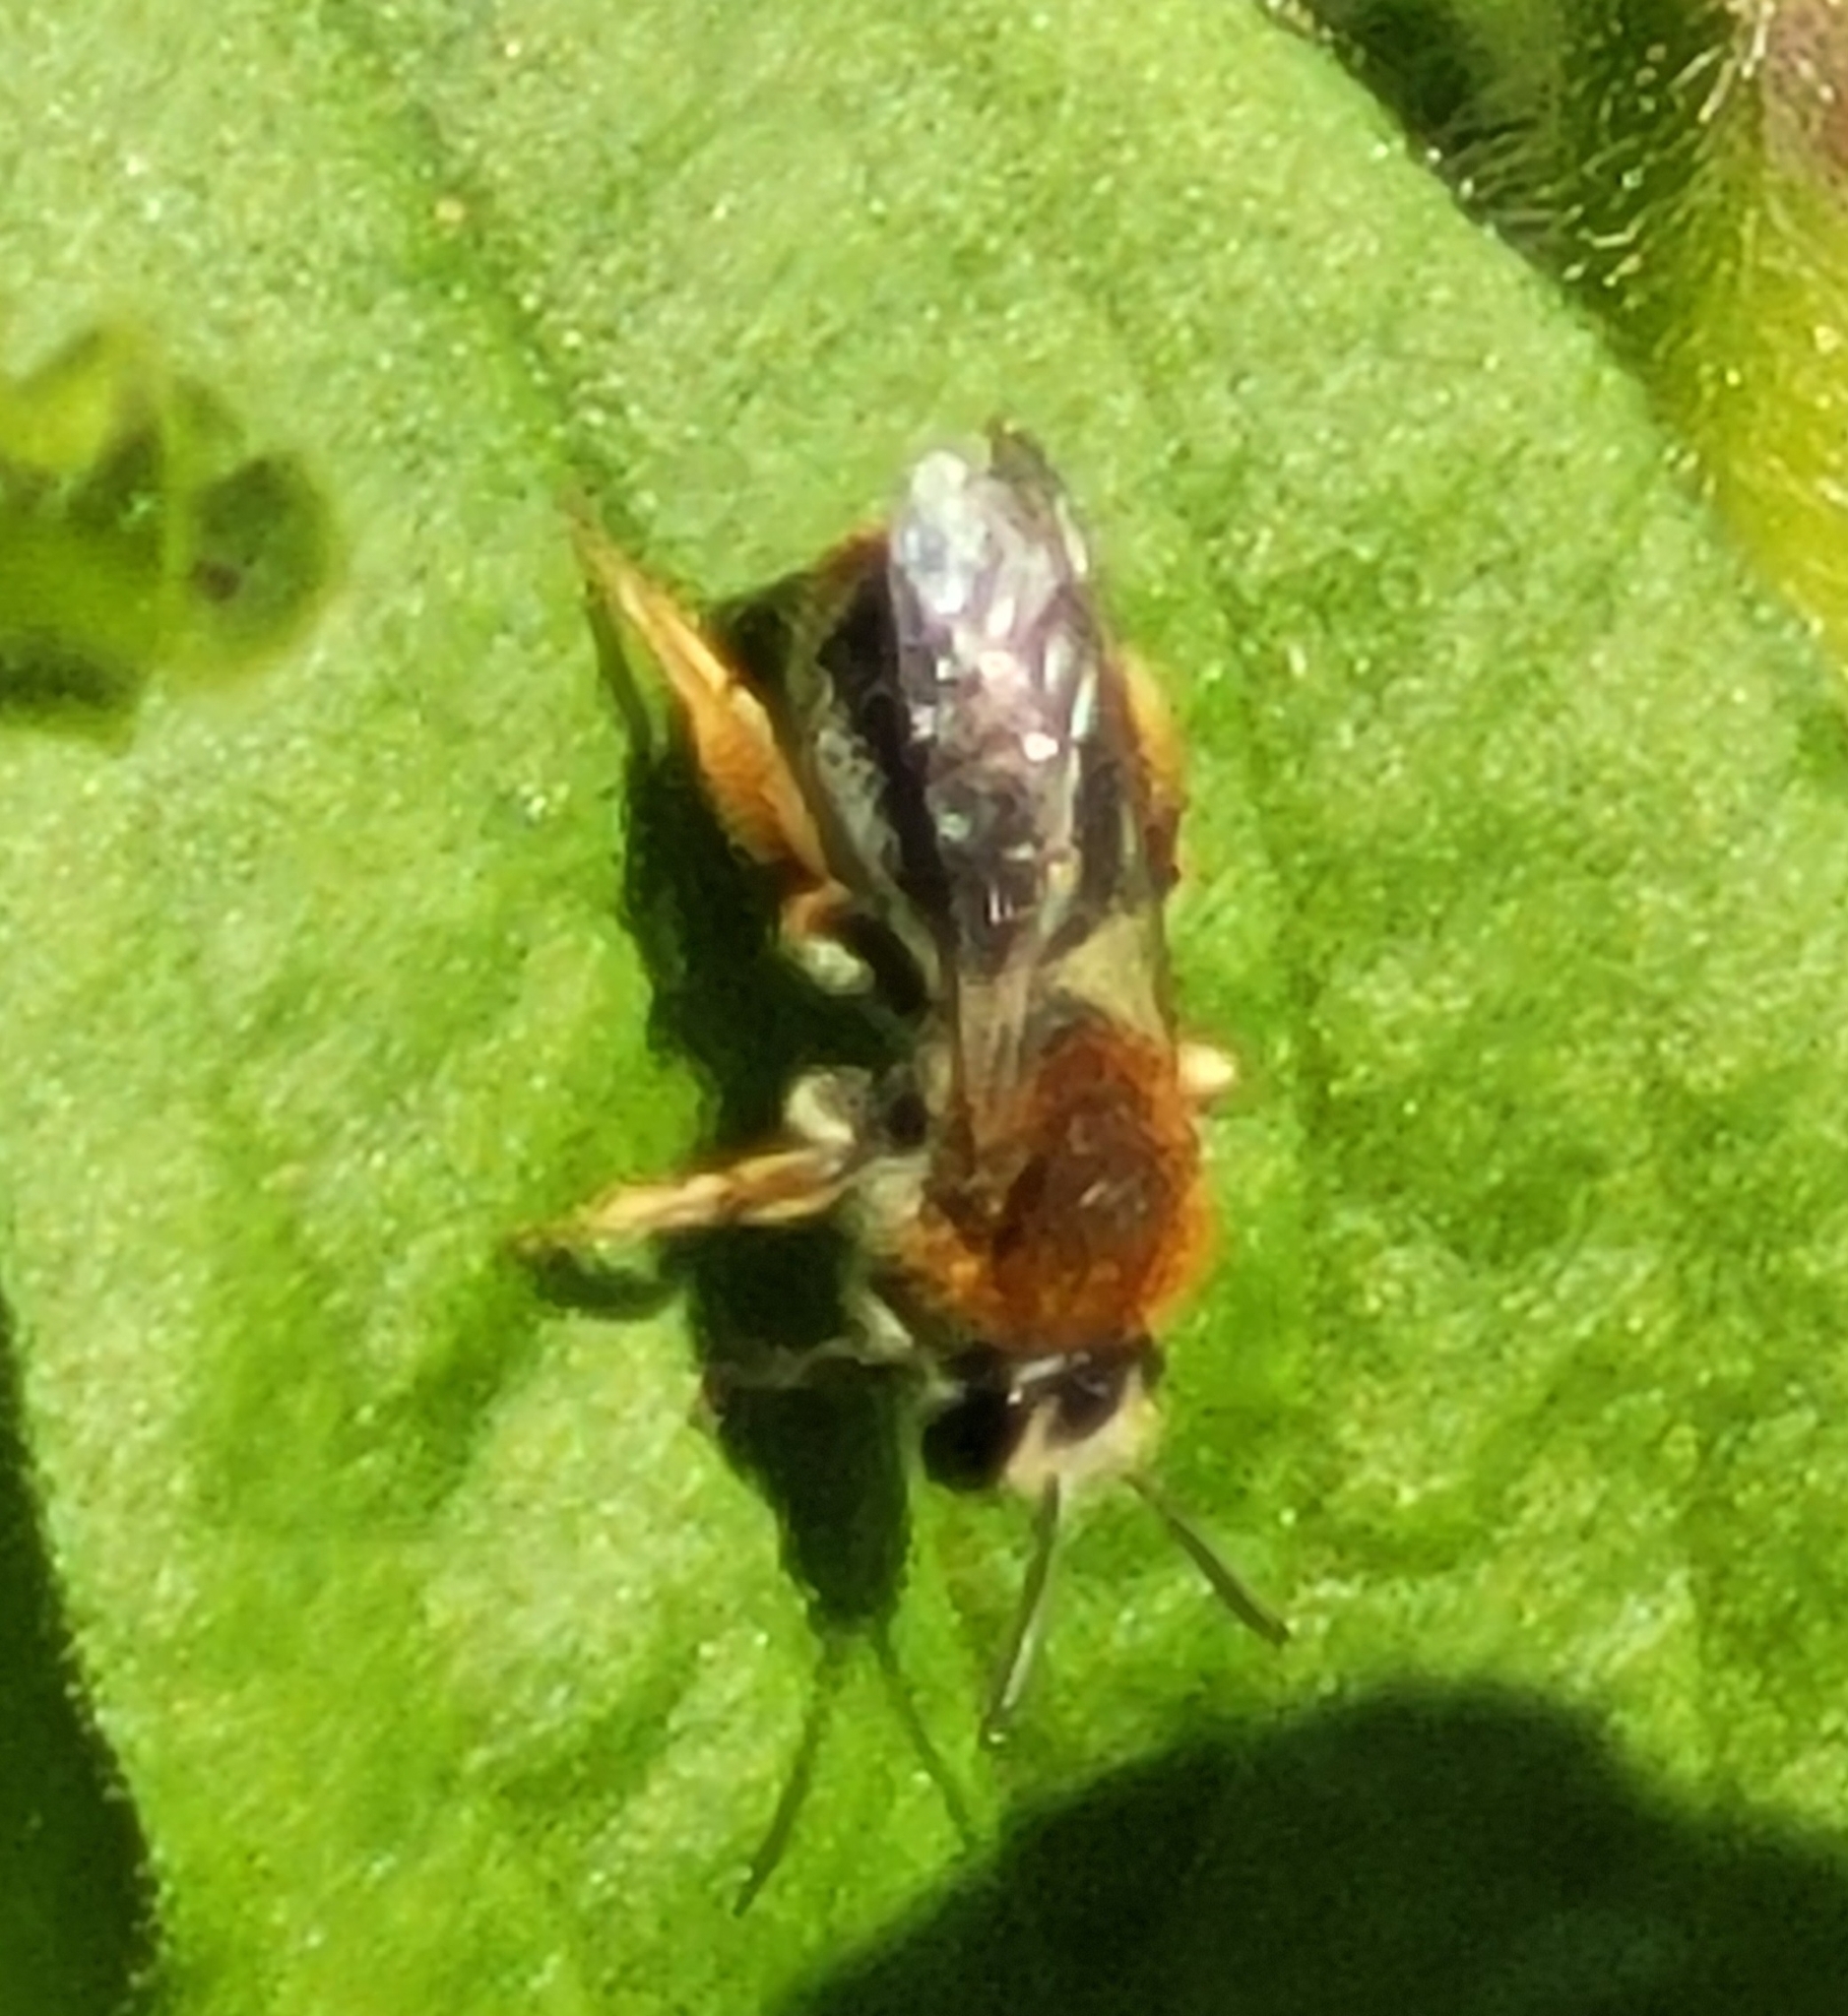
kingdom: Animalia
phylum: Arthropoda
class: Insecta
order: Hymenoptera
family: Andrenidae
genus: Andrena
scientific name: Andrena haemorrhoa
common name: Early mining bee
